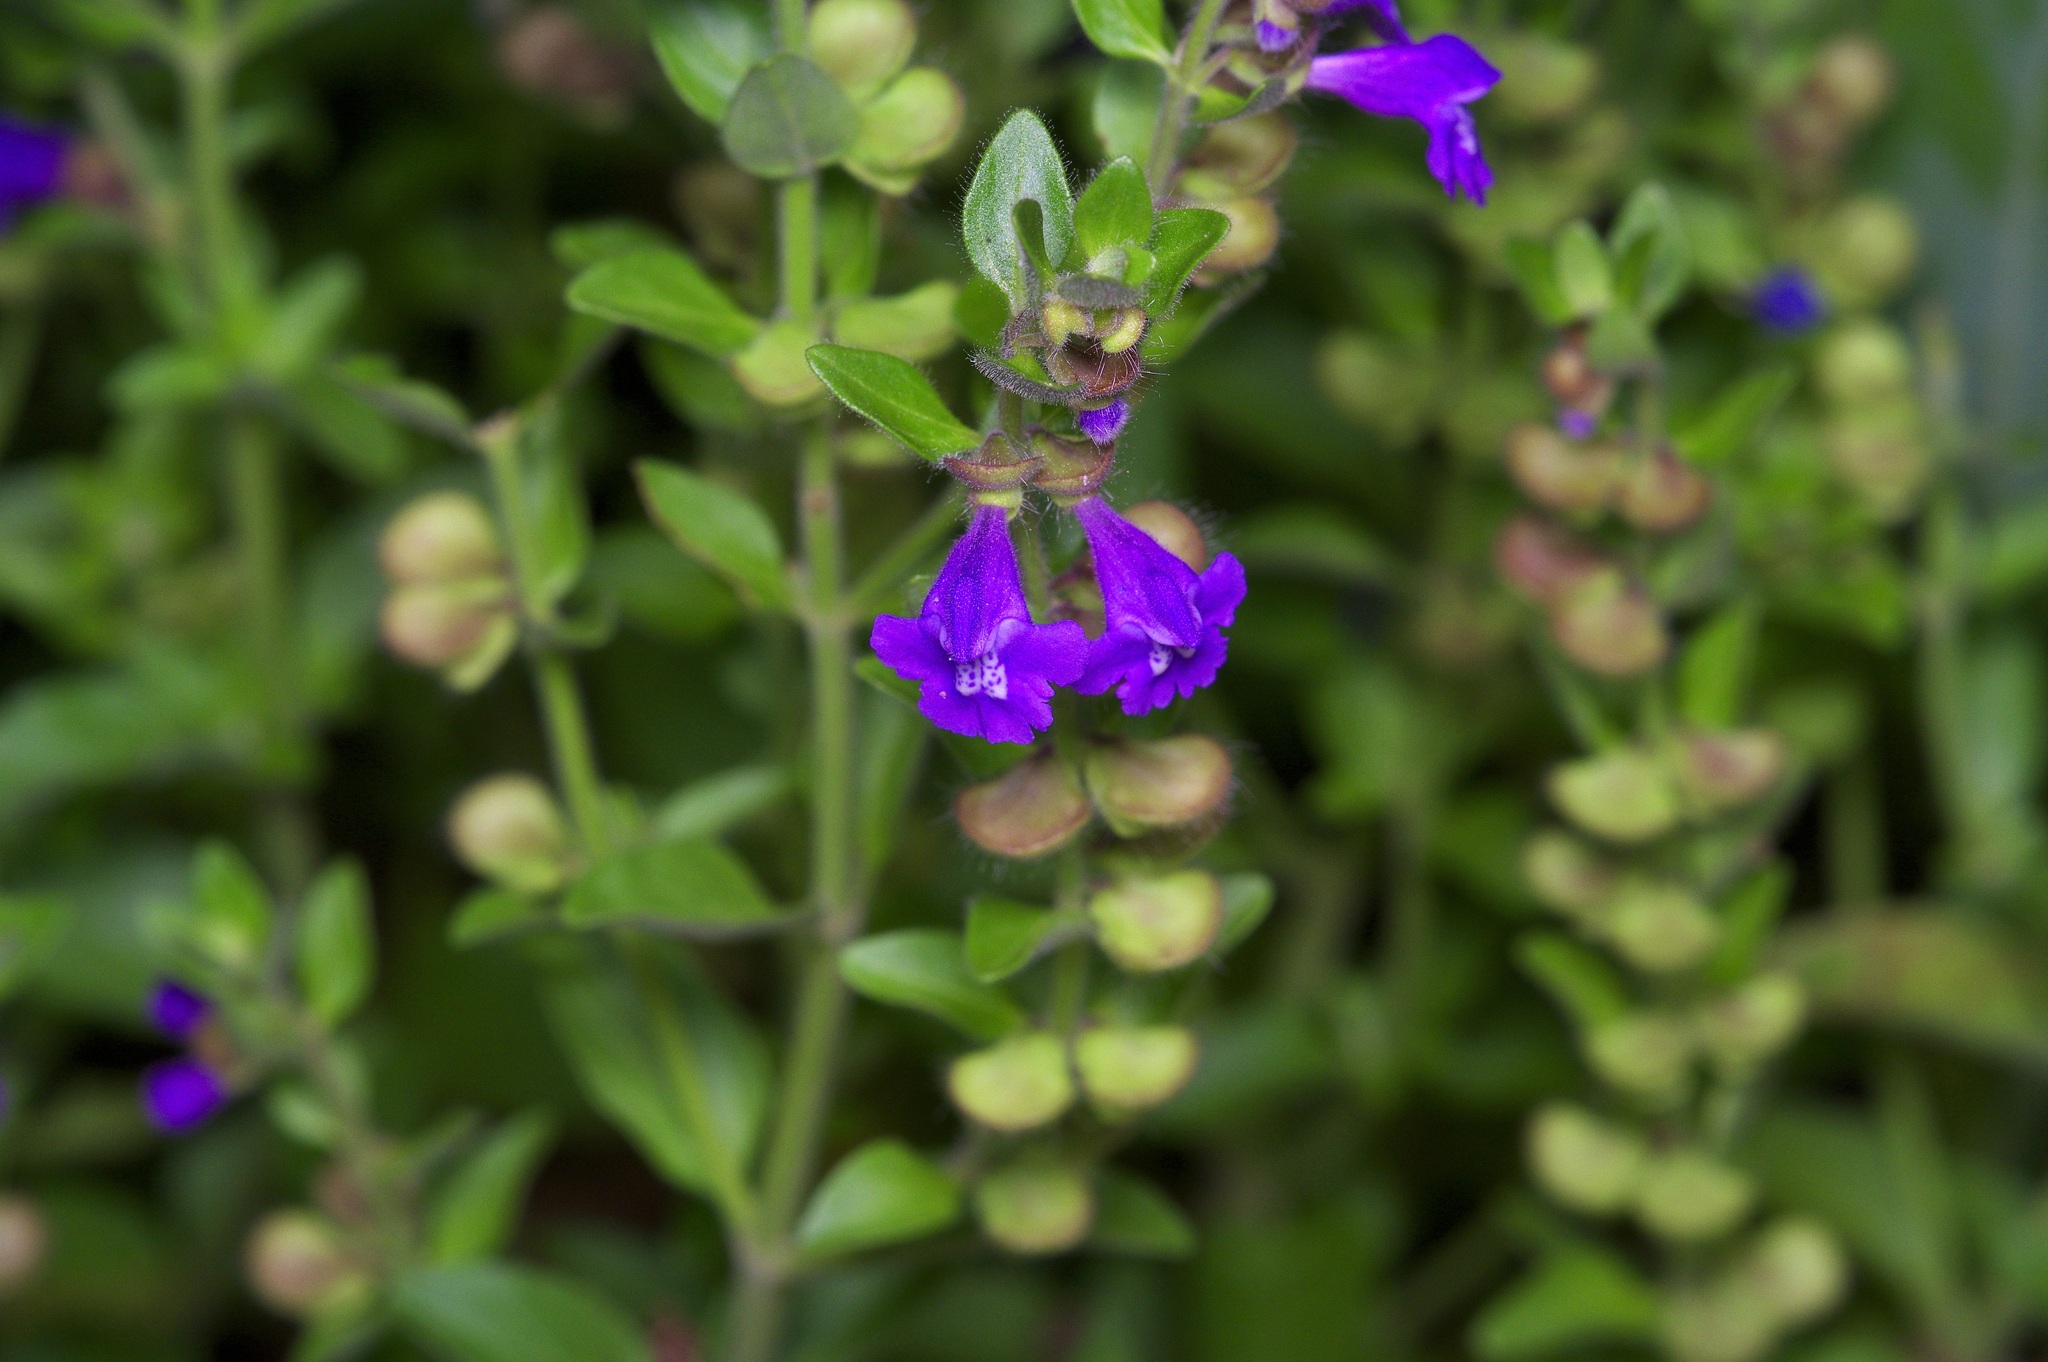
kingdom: Plantae
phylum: Tracheophyta
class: Magnoliopsida
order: Lamiales
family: Lamiaceae
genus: Scutellaria
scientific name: Scutellaria drummondii
